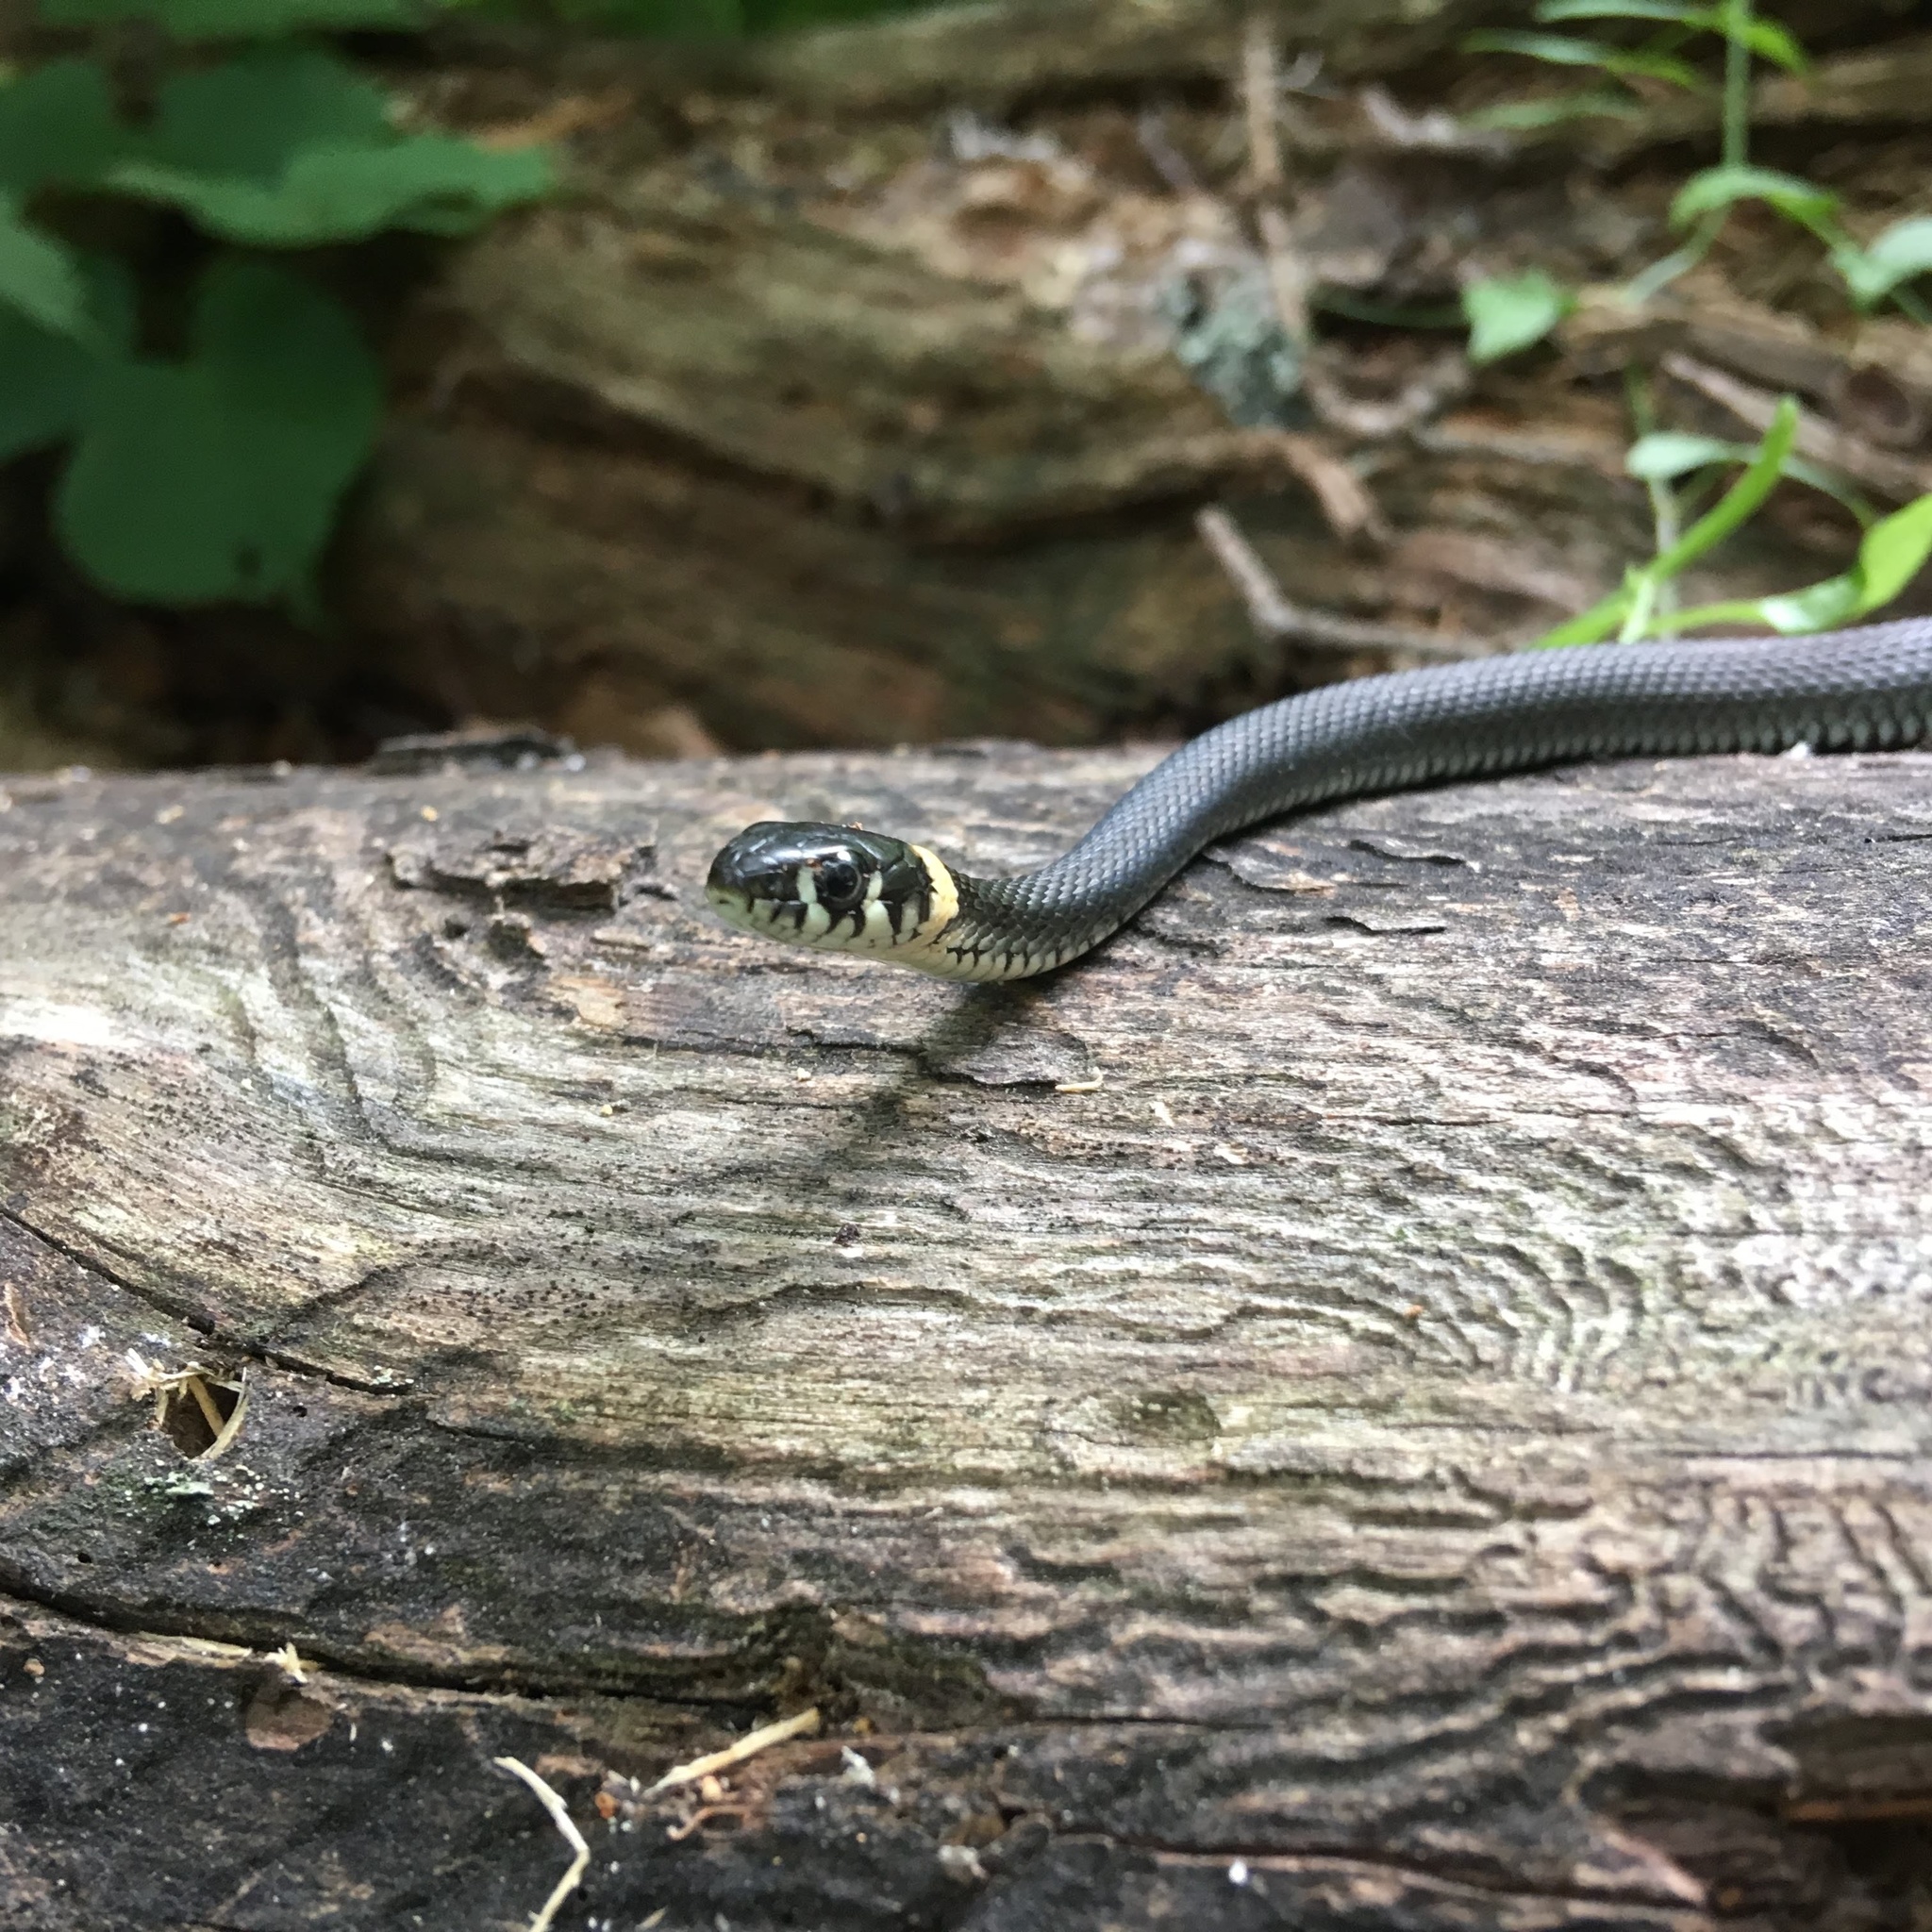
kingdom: Animalia
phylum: Chordata
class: Squamata
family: Colubridae
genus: Natrix
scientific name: Natrix natrix
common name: Grass snake
